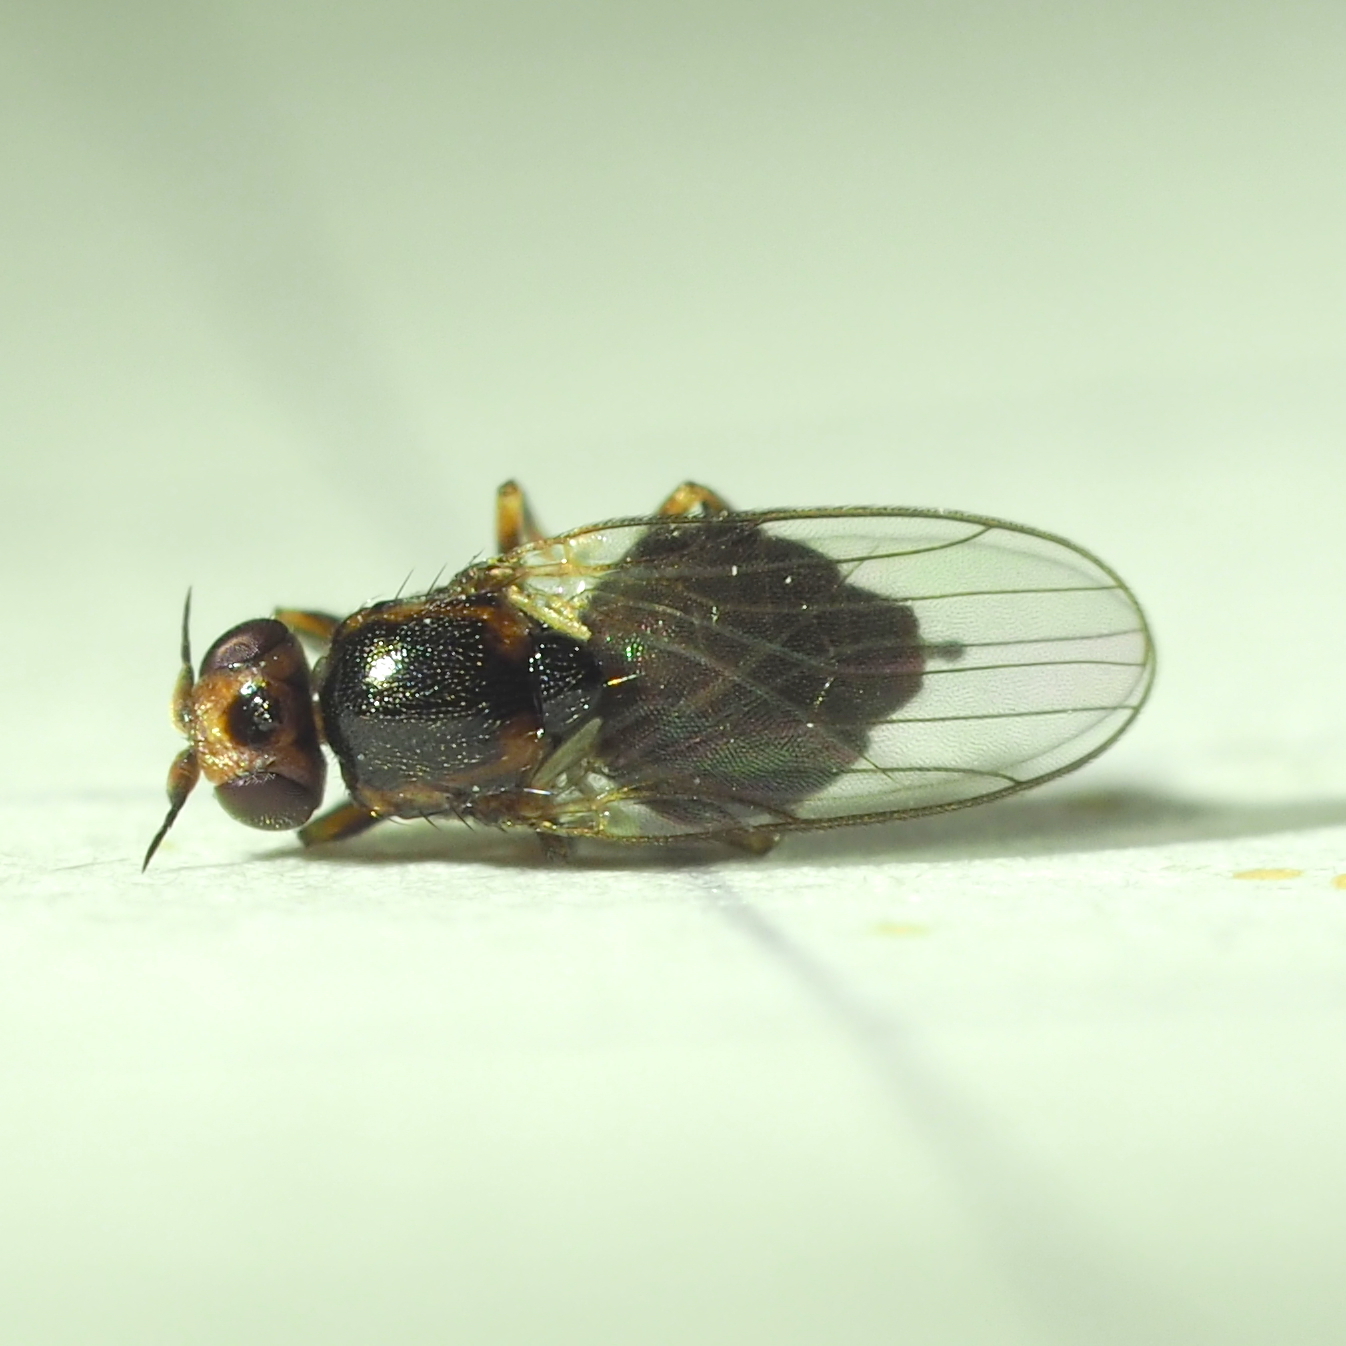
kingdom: Animalia
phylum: Arthropoda
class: Insecta
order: Diptera
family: Chloropidae
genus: Gampsocera
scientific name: Gampsocera numerata
